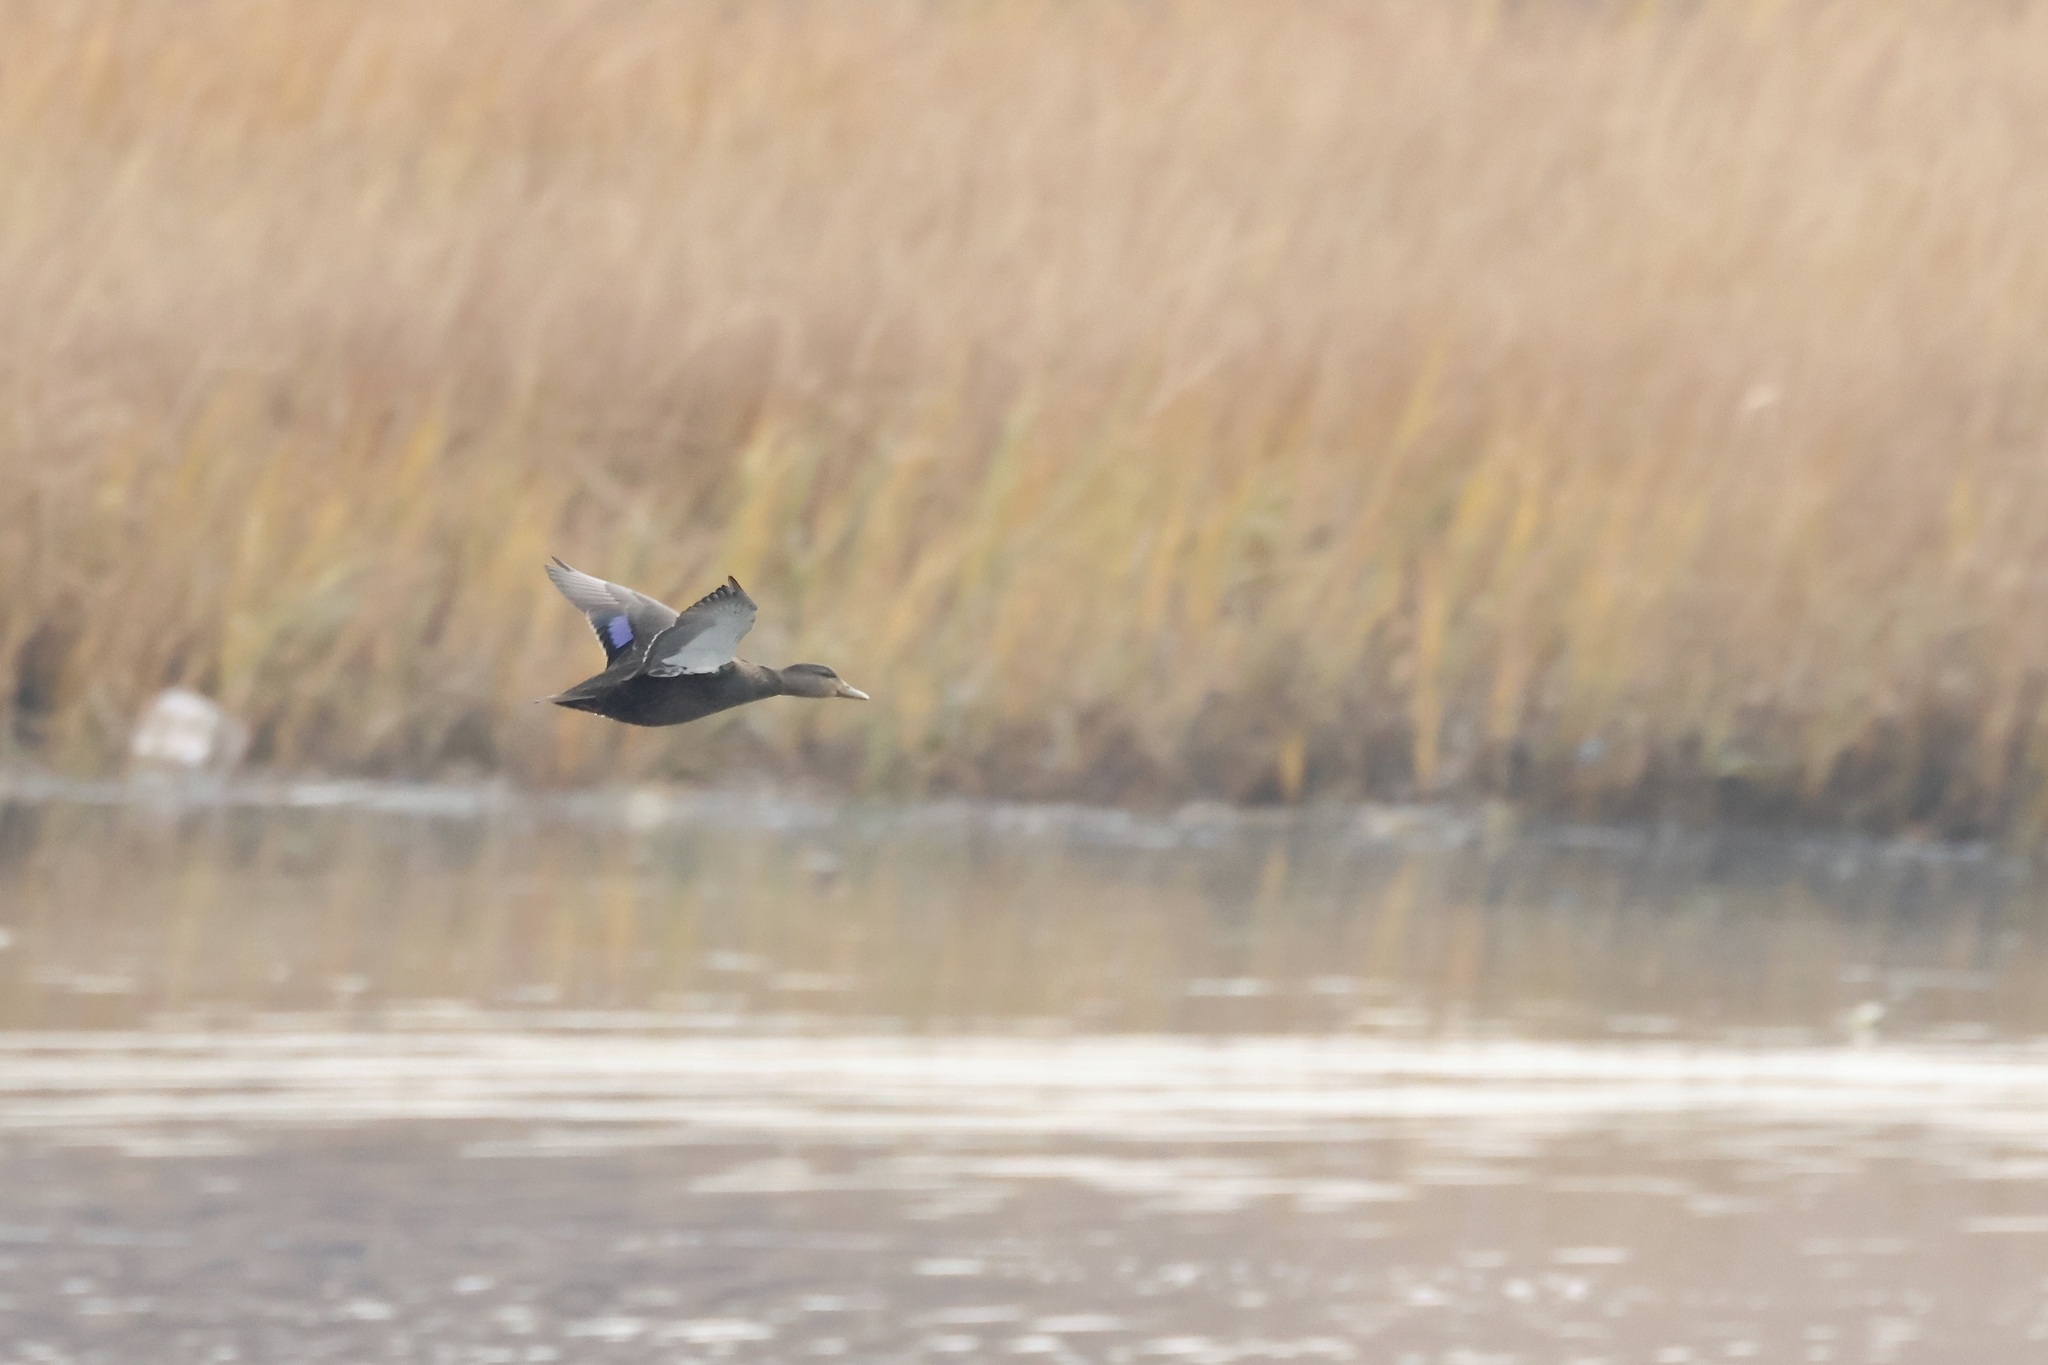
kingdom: Animalia
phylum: Chordata
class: Aves
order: Anseriformes
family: Anatidae
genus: Anas
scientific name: Anas rubripes
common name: American black duck
